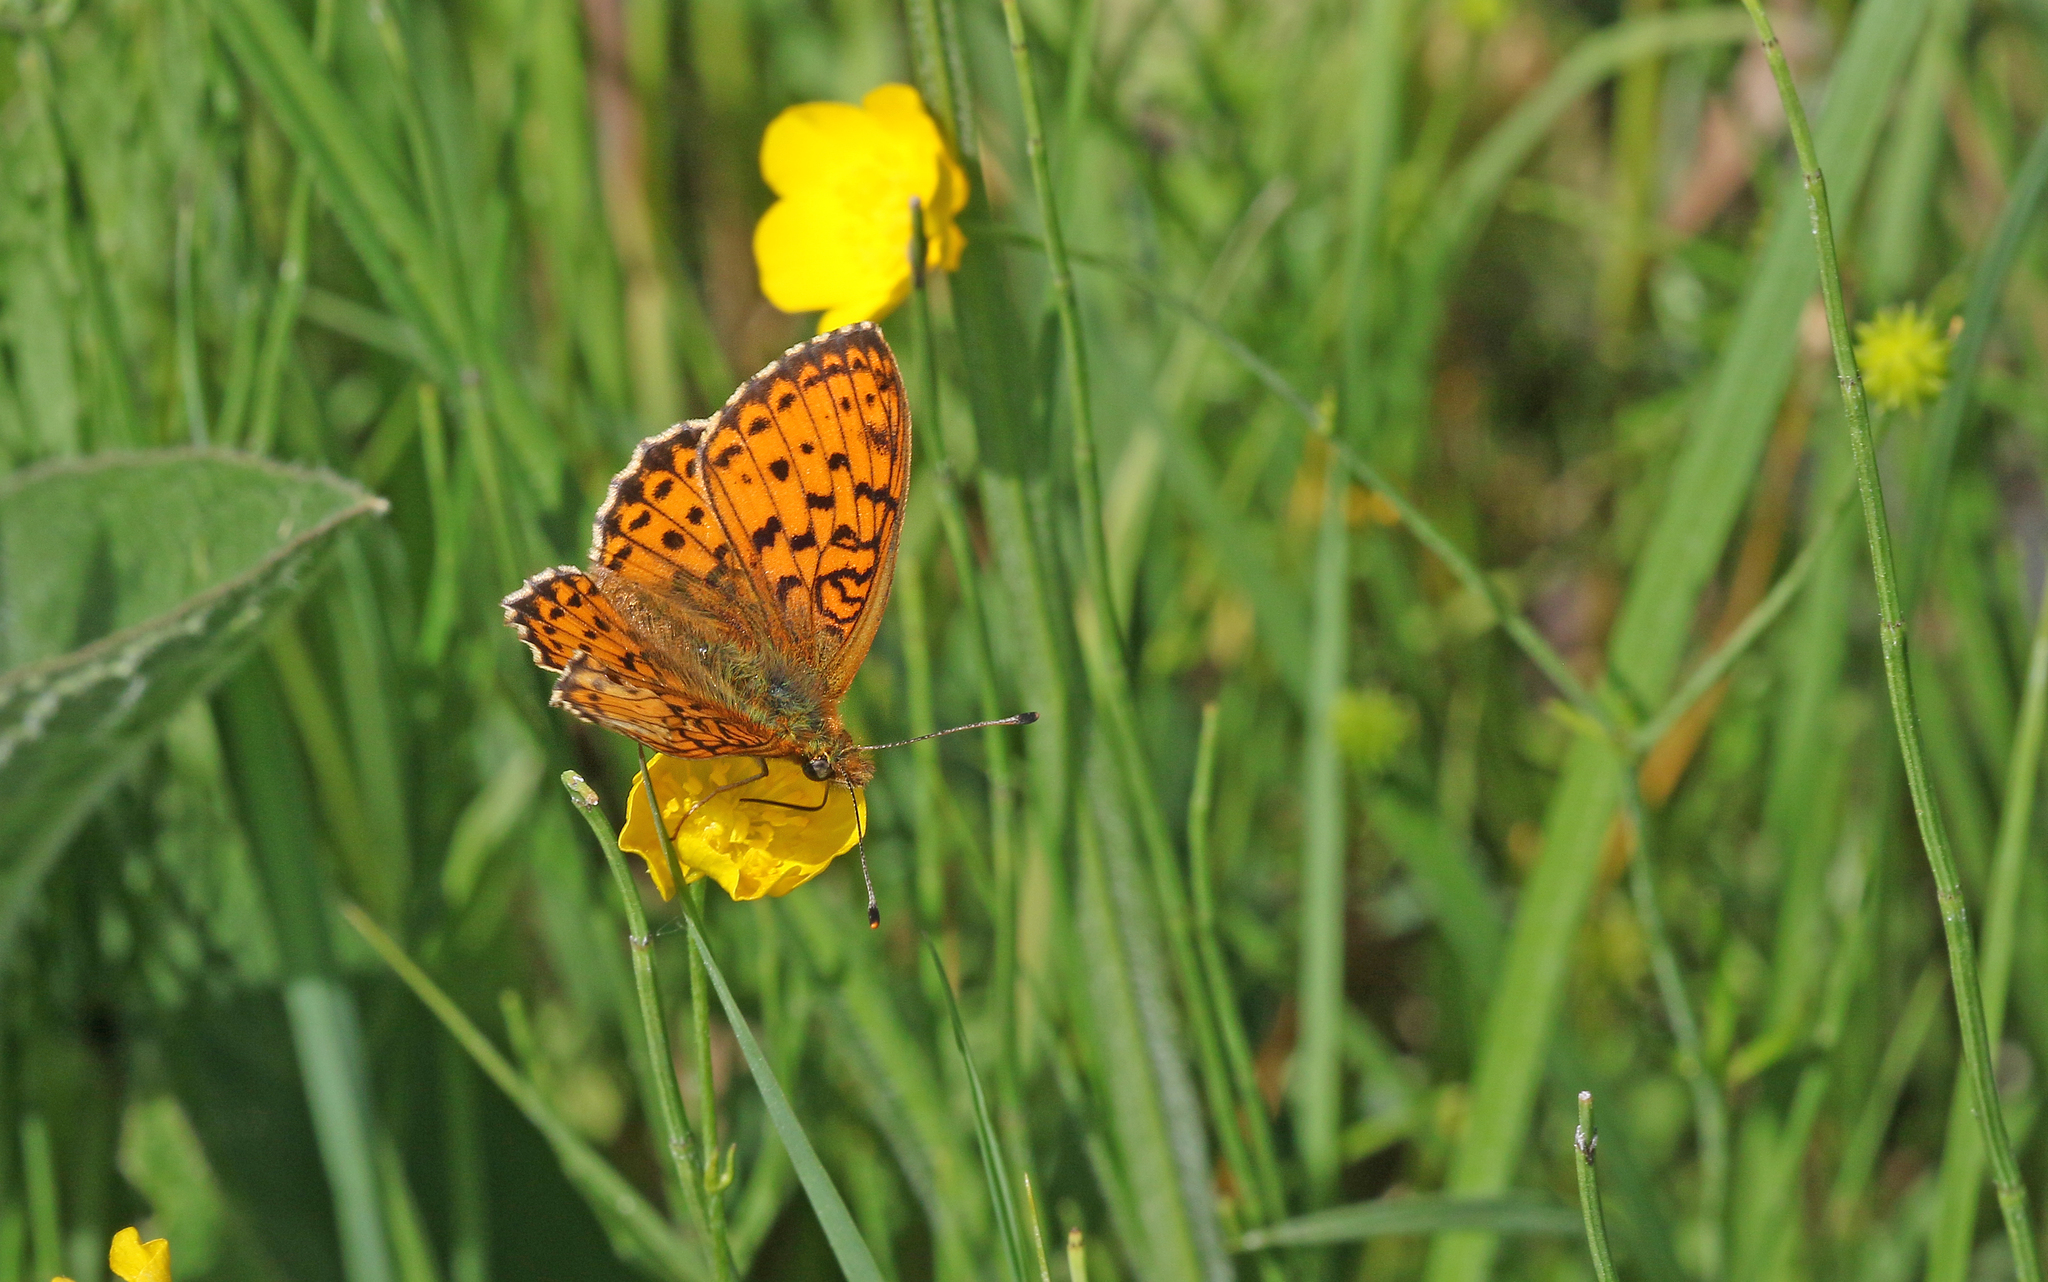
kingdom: Animalia
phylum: Arthropoda
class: Insecta
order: Lepidoptera
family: Nymphalidae
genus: Brenthis
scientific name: Brenthis ino
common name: Lesser marbled fritillary
